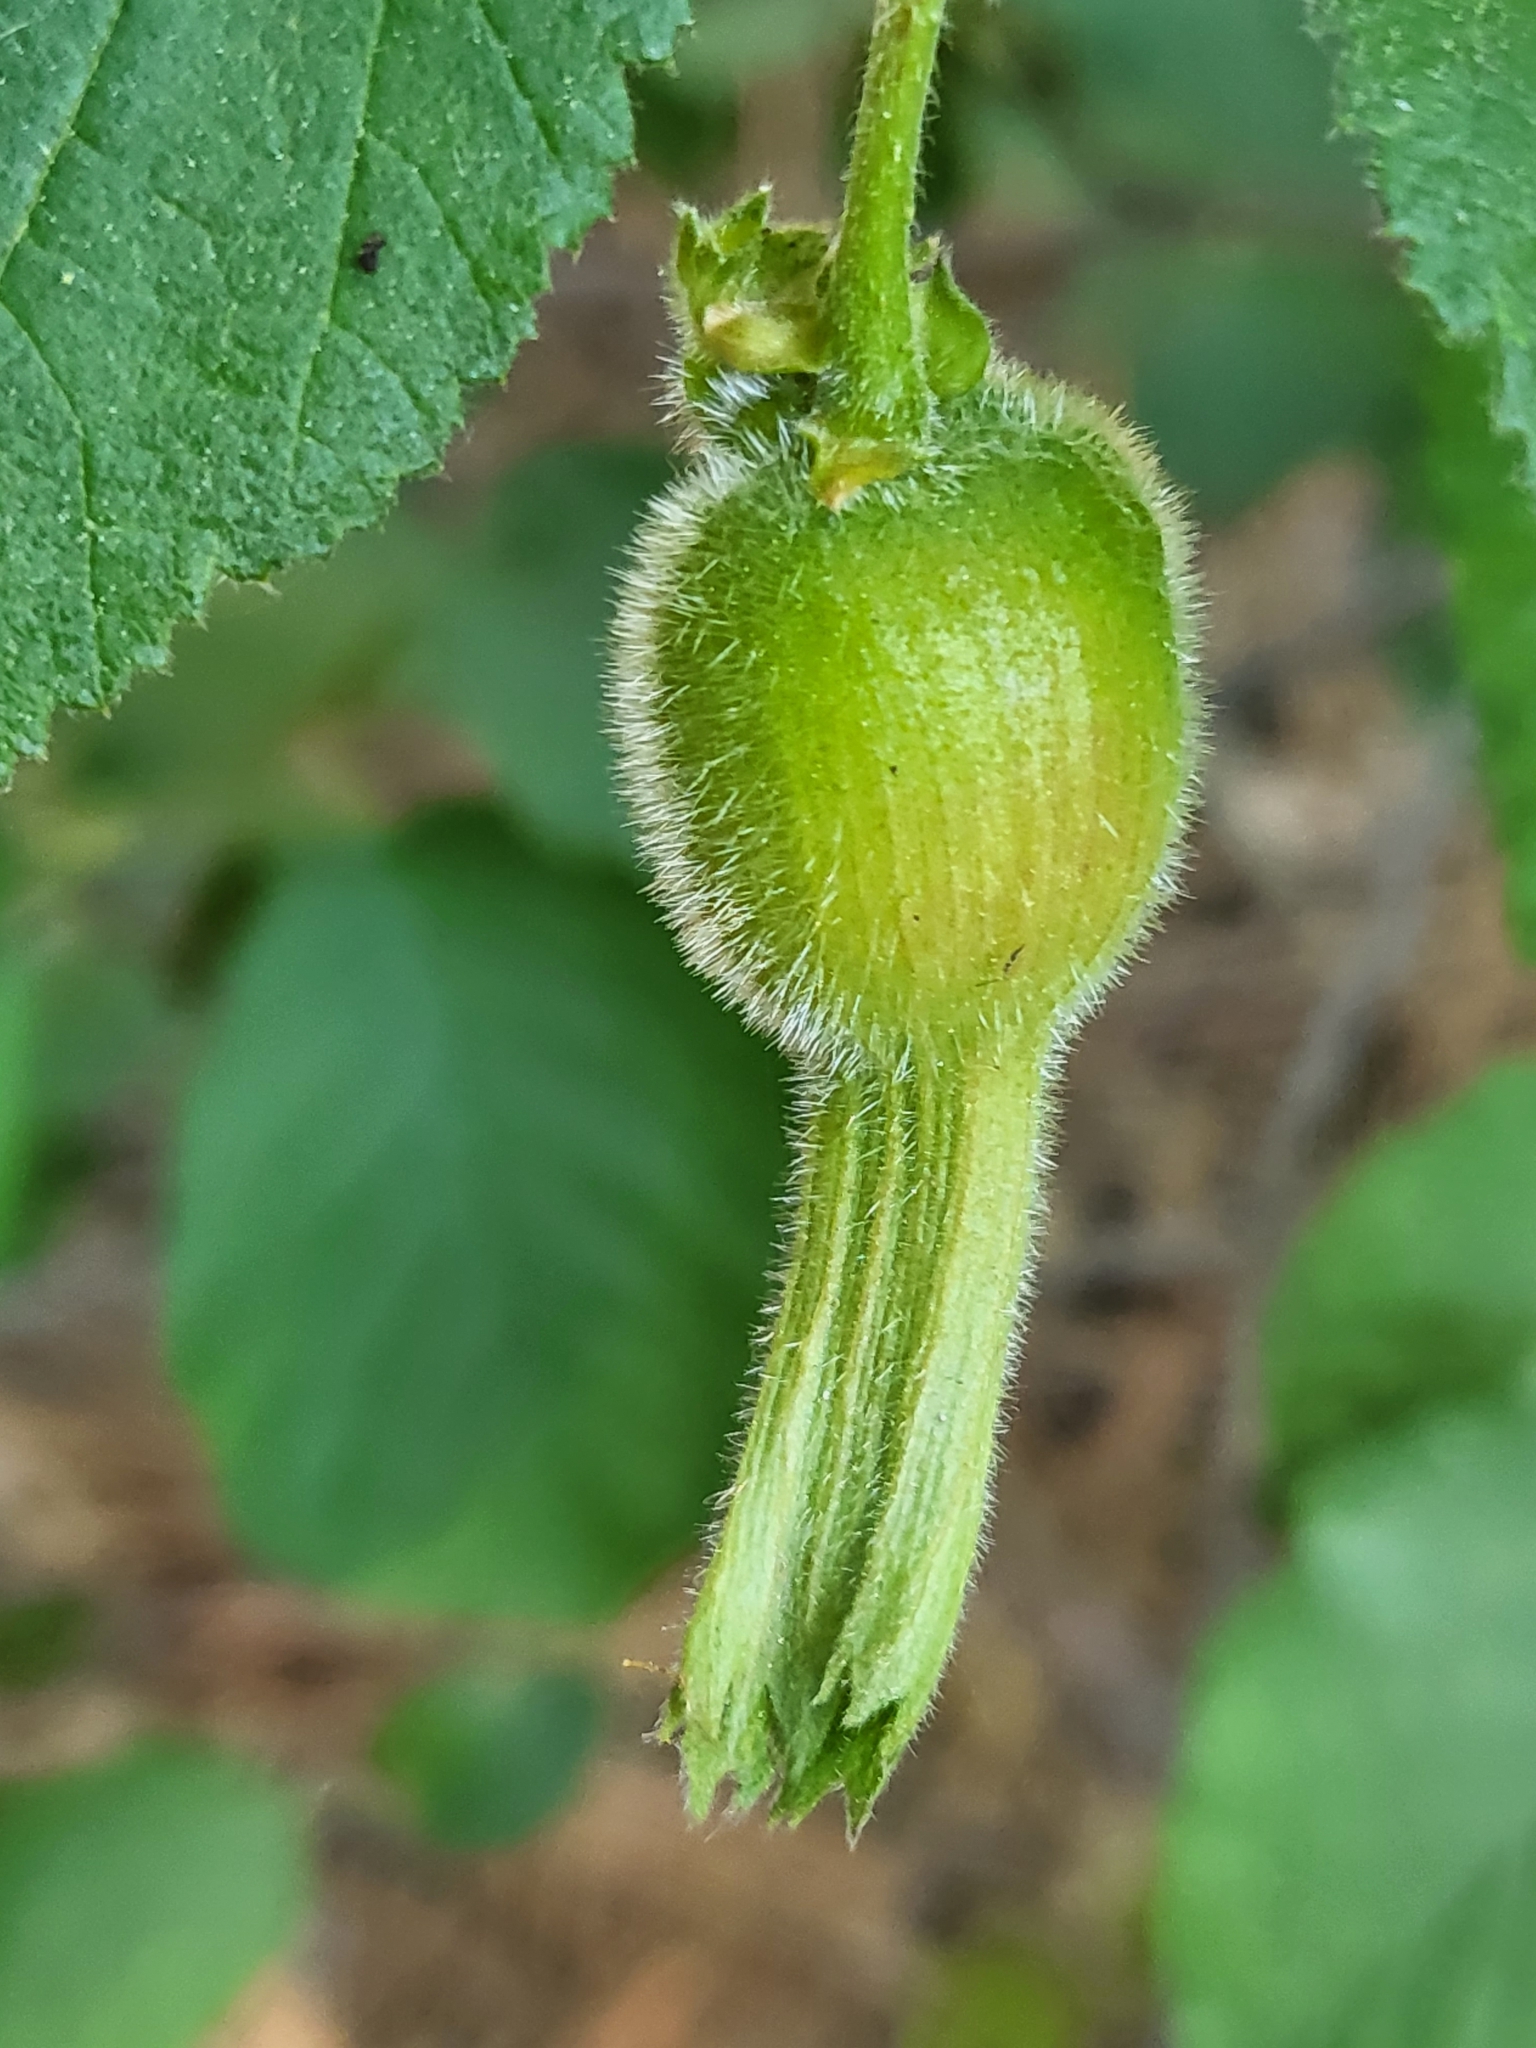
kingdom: Plantae
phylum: Tracheophyta
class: Magnoliopsida
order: Fagales
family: Betulaceae
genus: Corylus
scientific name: Corylus cornuta
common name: Beaked hazel
